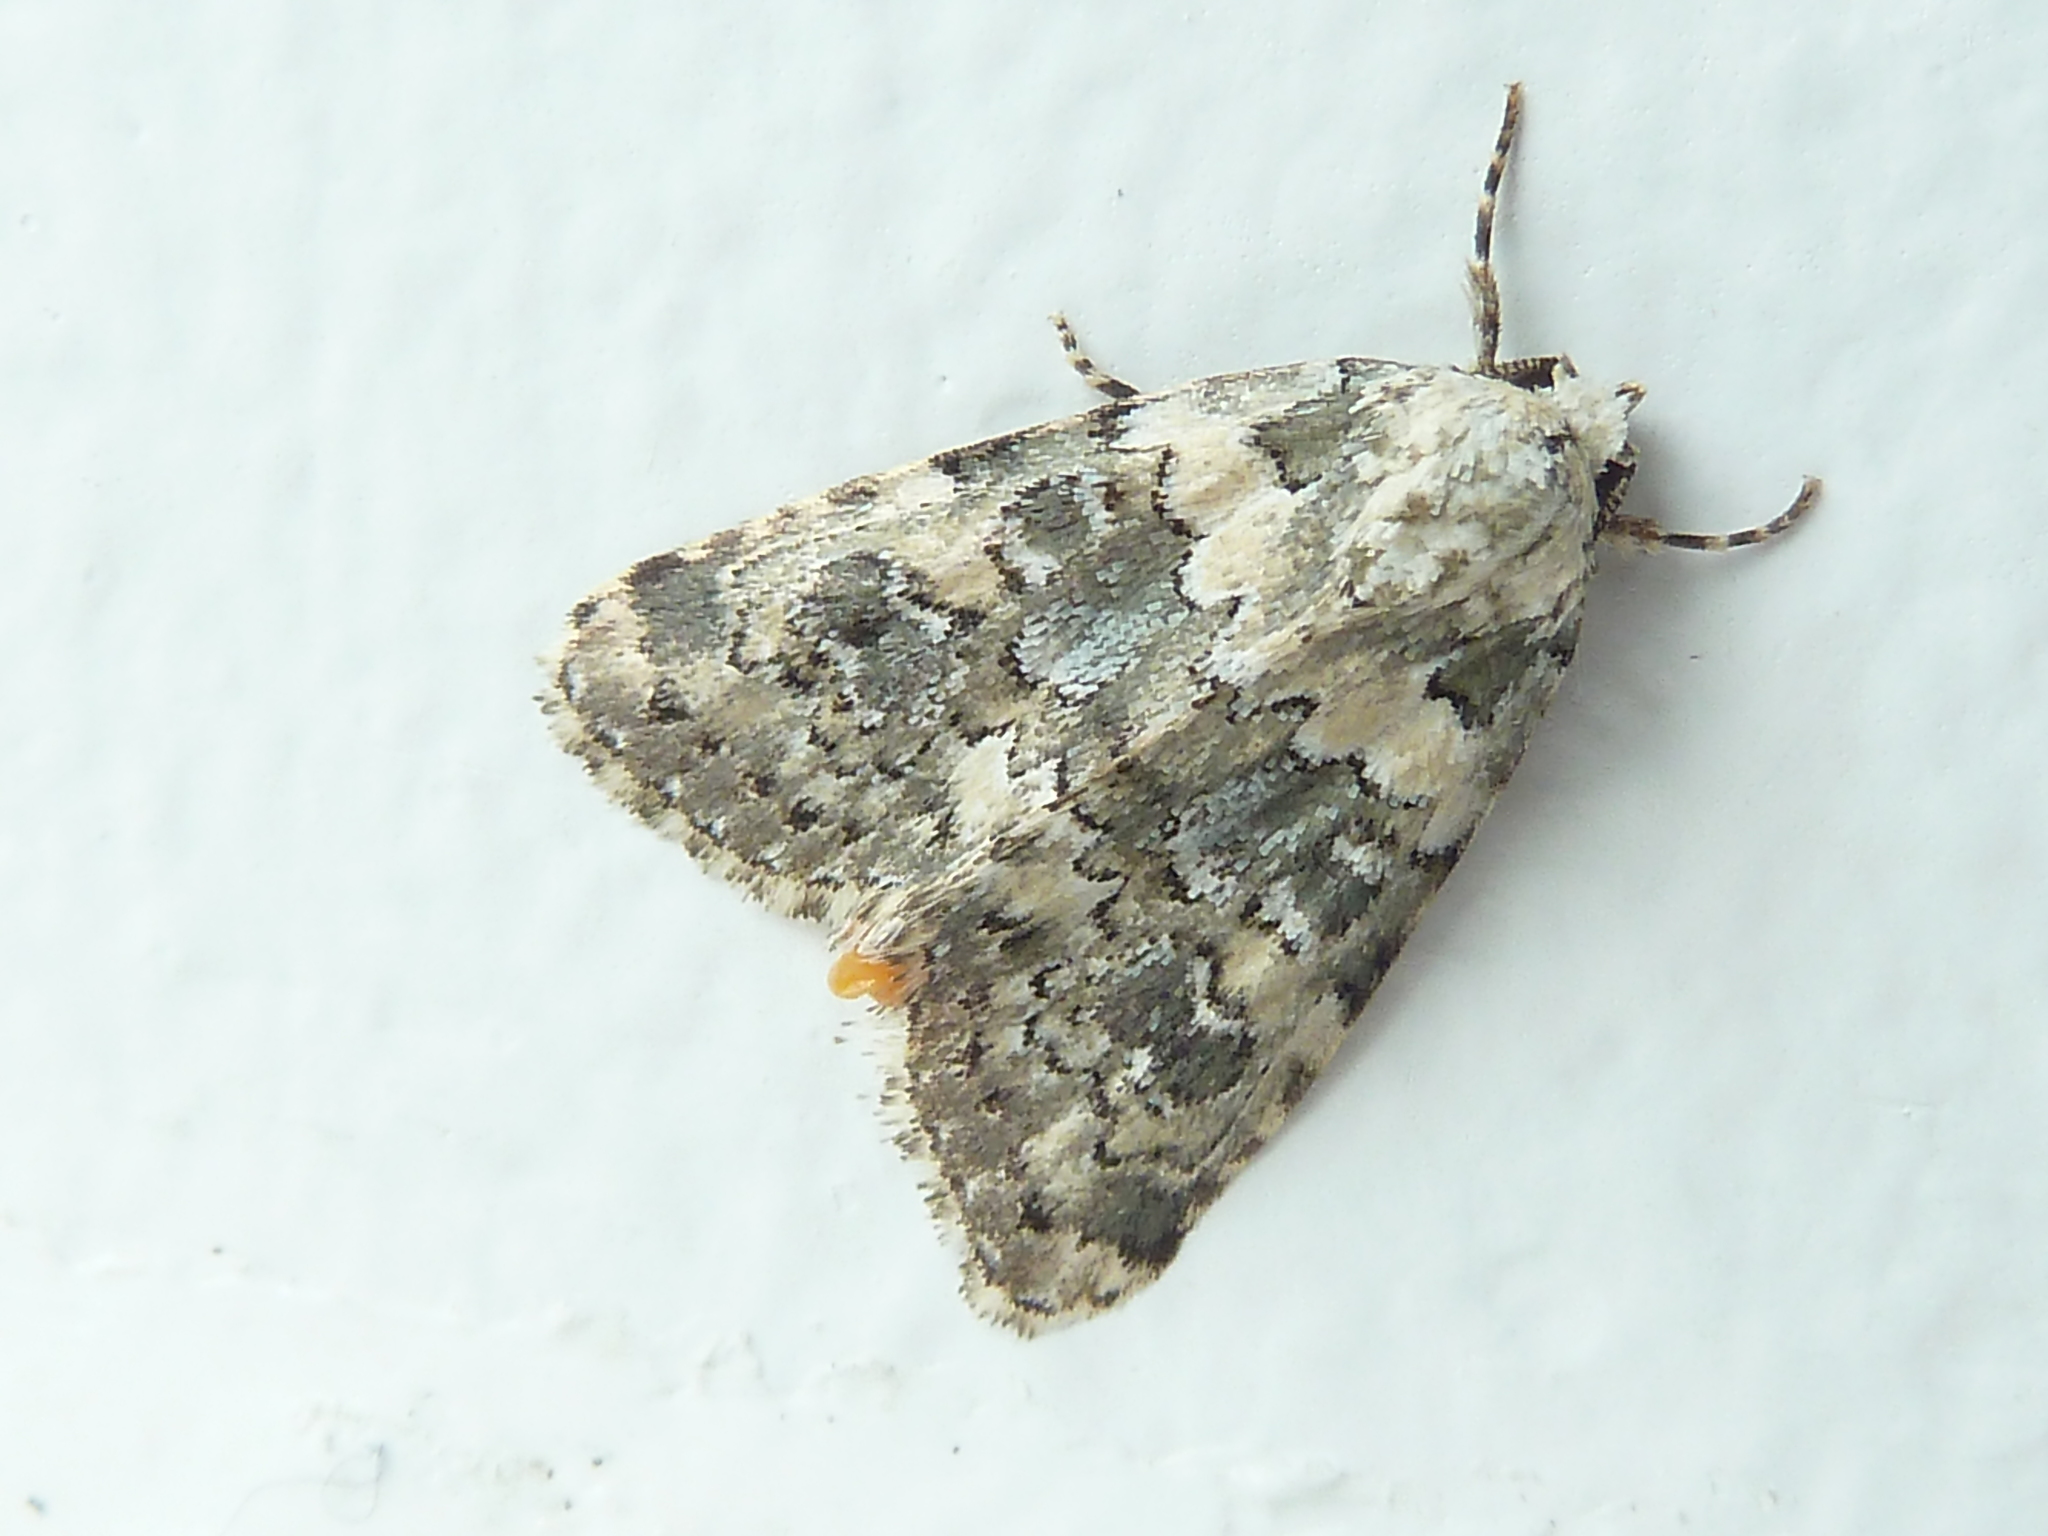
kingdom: Animalia
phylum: Arthropoda
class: Insecta
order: Lepidoptera
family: Noctuidae
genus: Bryophila
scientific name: Bryophila domestica
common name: Marbled beauty
